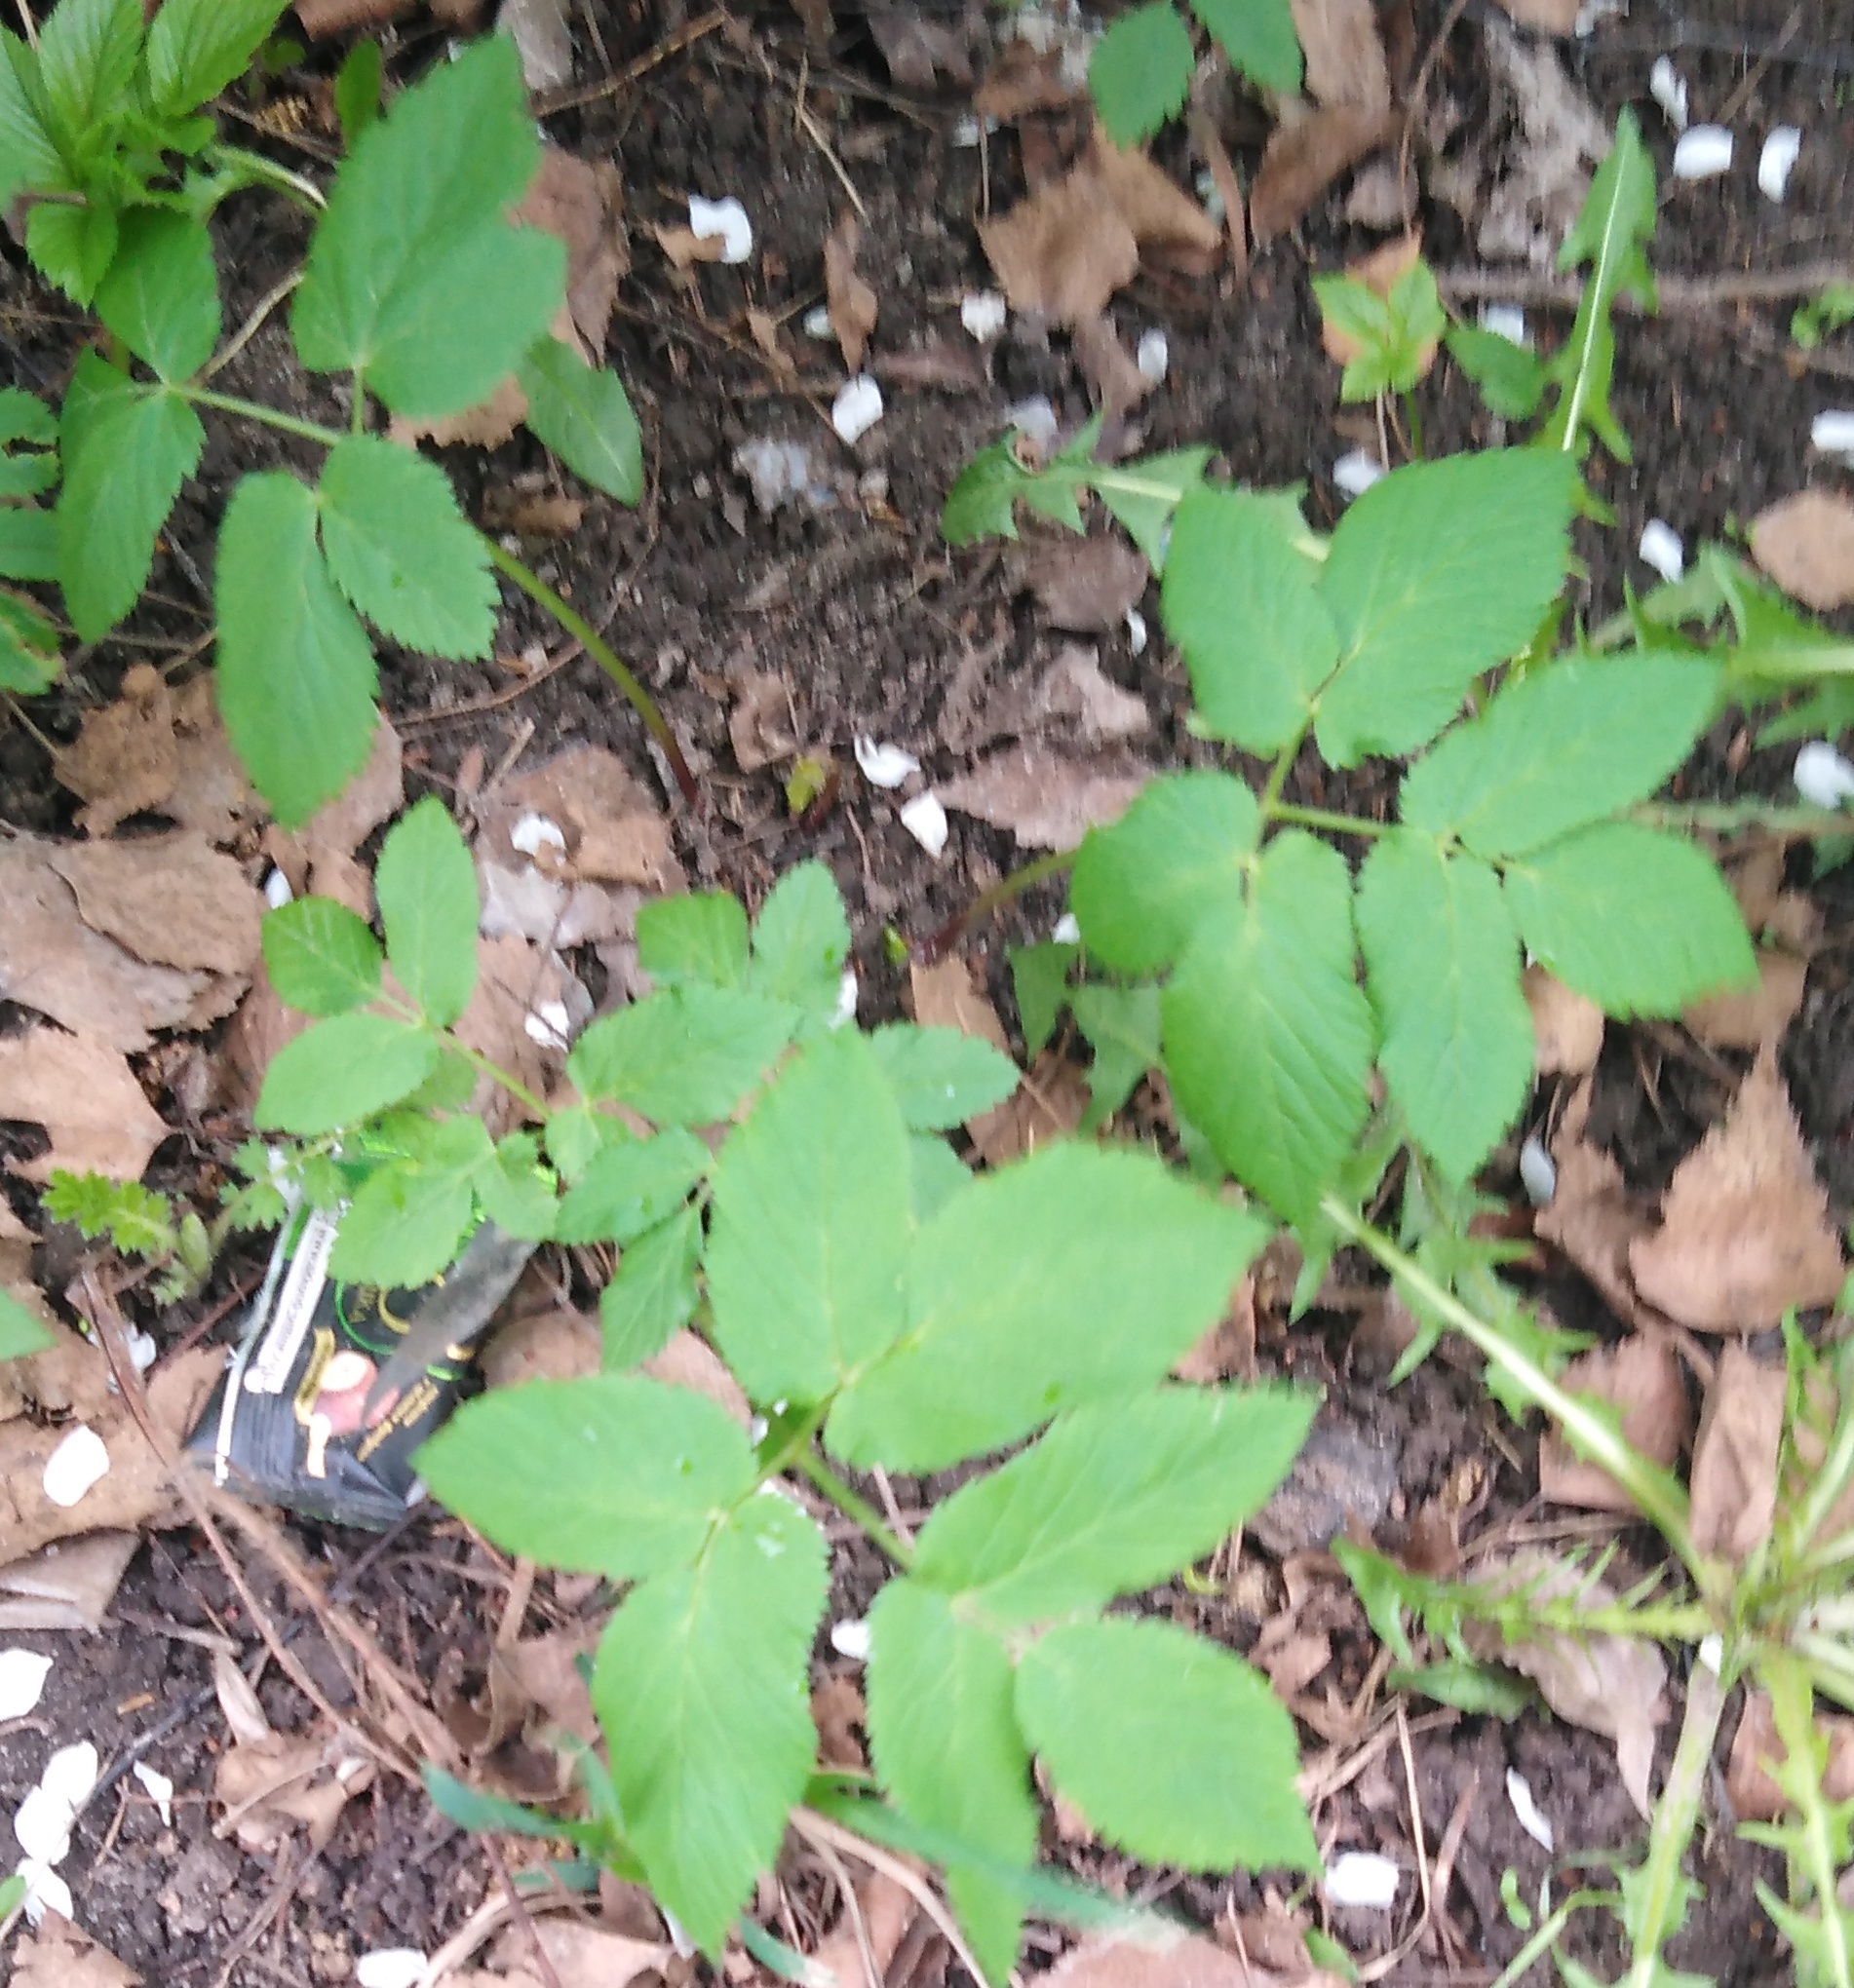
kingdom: Plantae
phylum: Tracheophyta
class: Magnoliopsida
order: Apiales
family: Apiaceae
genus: Aegopodium
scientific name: Aegopodium podagraria
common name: Ground-elder
